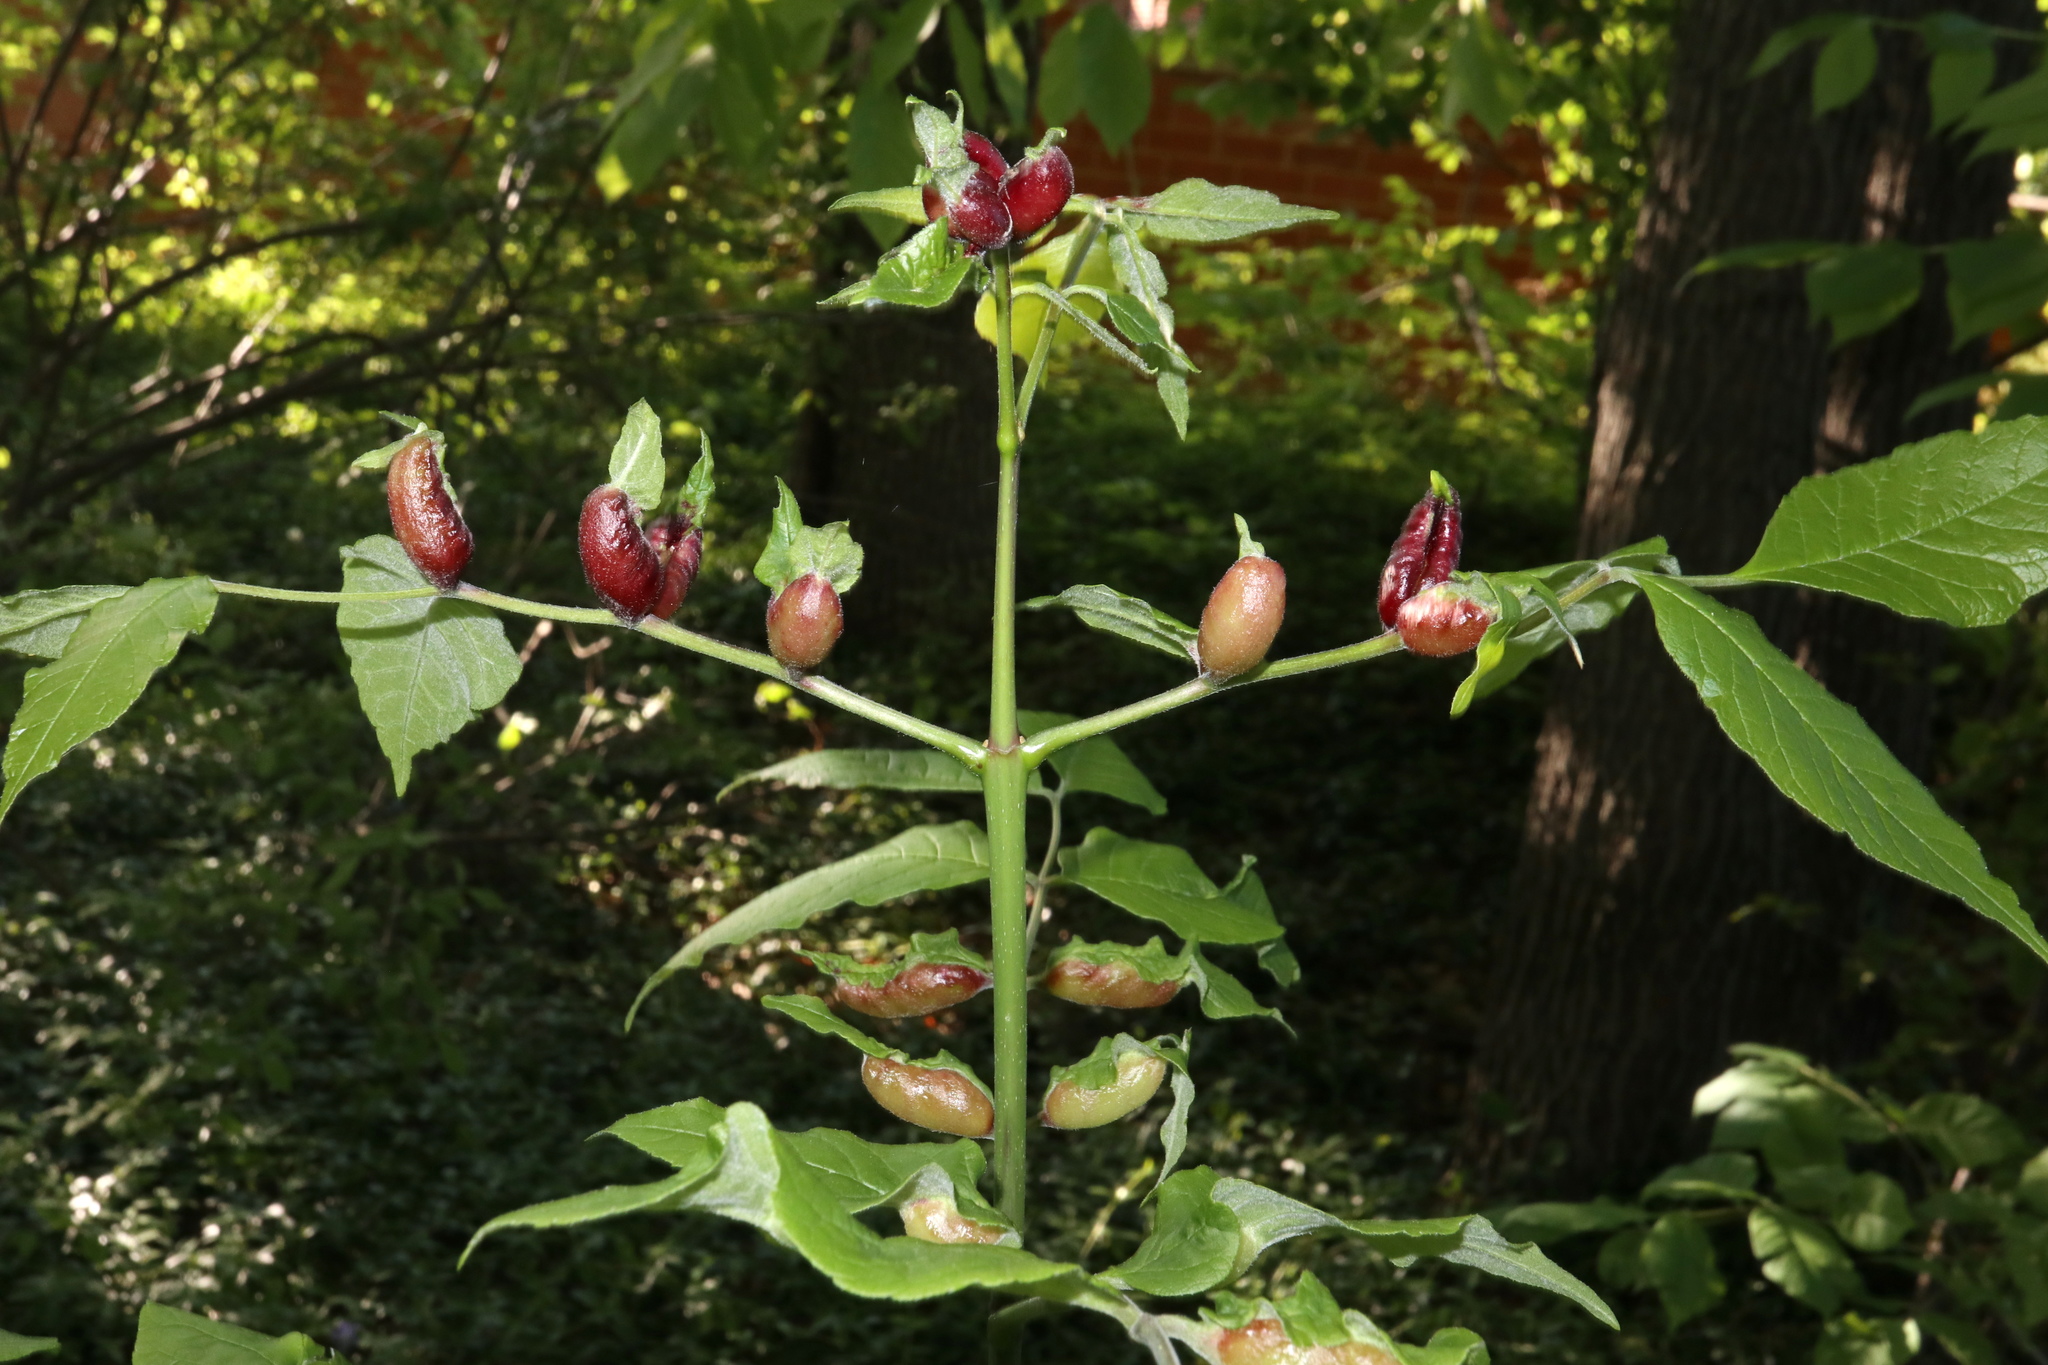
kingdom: Animalia
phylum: Arthropoda
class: Insecta
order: Diptera
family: Cecidomyiidae
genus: Dasineura
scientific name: Dasineura tumidosae
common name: Ash petiole gall midge
